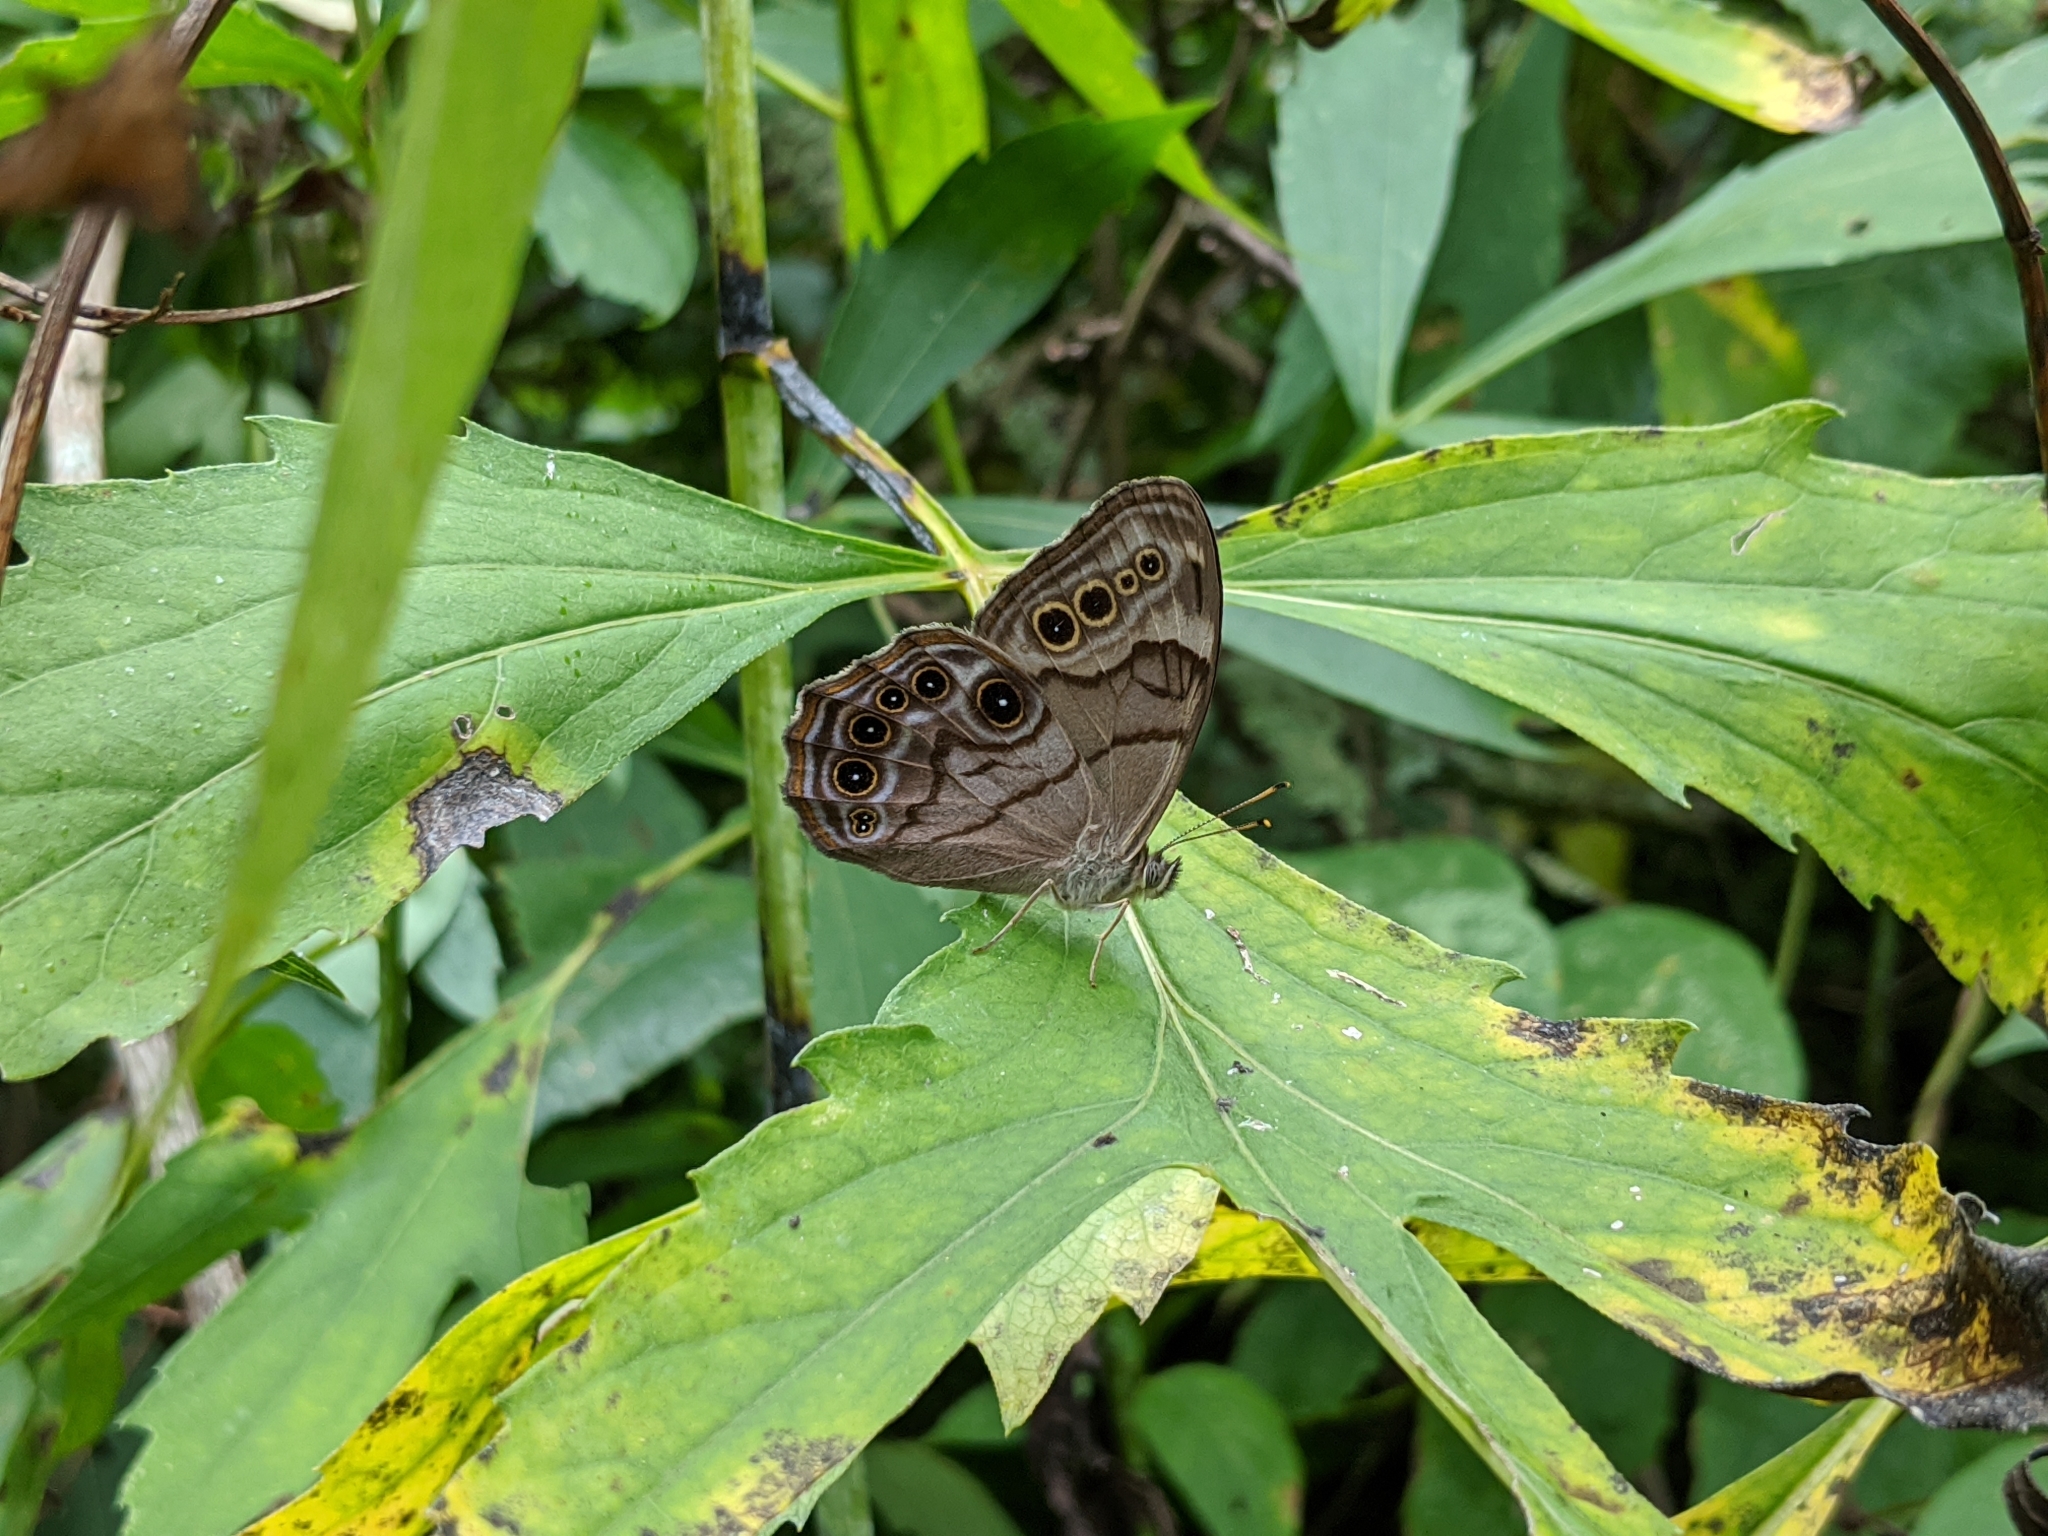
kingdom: Animalia
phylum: Arthropoda
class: Insecta
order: Lepidoptera
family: Nymphalidae
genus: Lethe
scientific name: Lethe anthedon
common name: Northern pearly-eye
